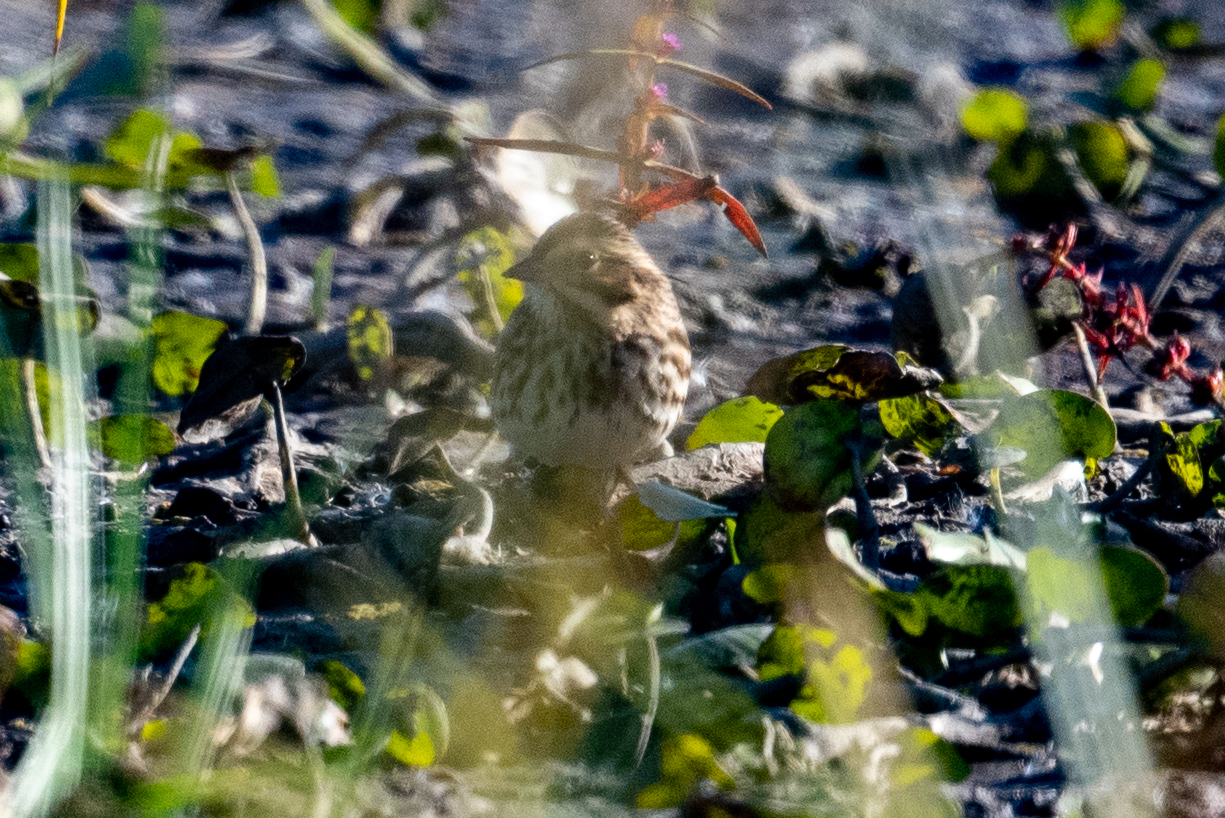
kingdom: Animalia
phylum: Chordata
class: Aves
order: Passeriformes
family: Passerellidae
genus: Passerculus
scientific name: Passerculus sandwichensis
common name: Savannah sparrow
